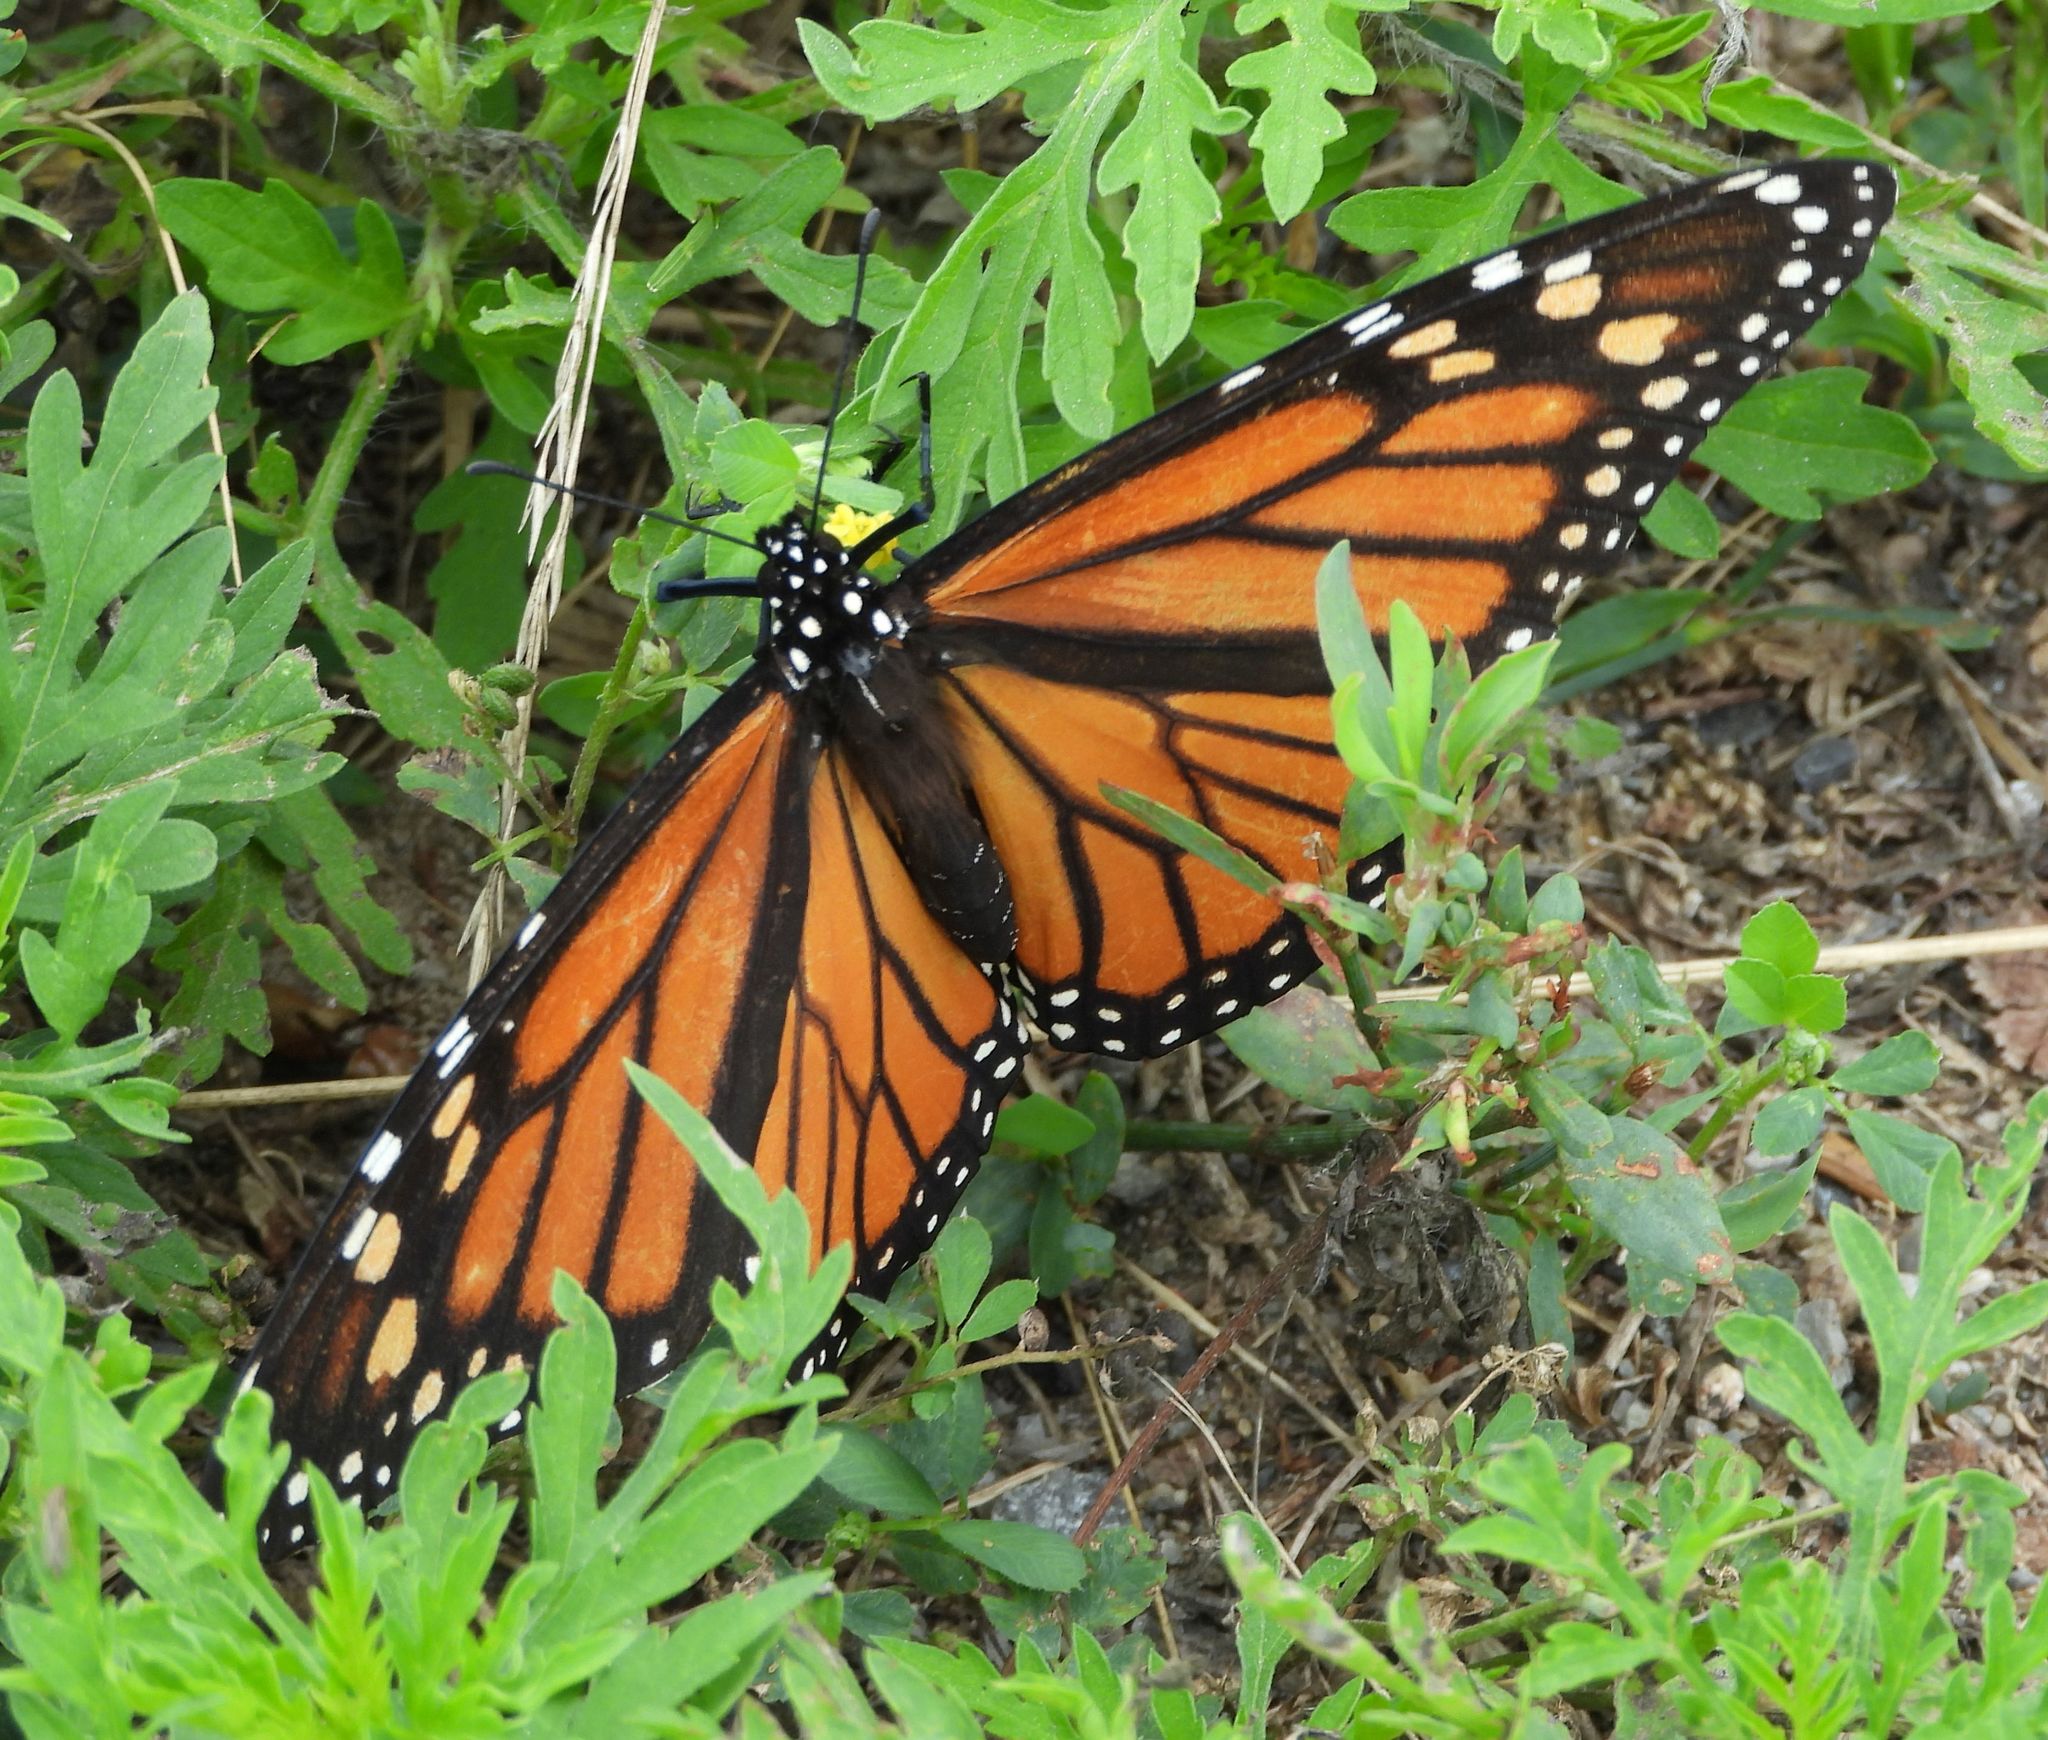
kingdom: Animalia
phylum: Arthropoda
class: Insecta
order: Lepidoptera
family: Nymphalidae
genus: Danaus
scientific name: Danaus plexippus
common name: Monarch
